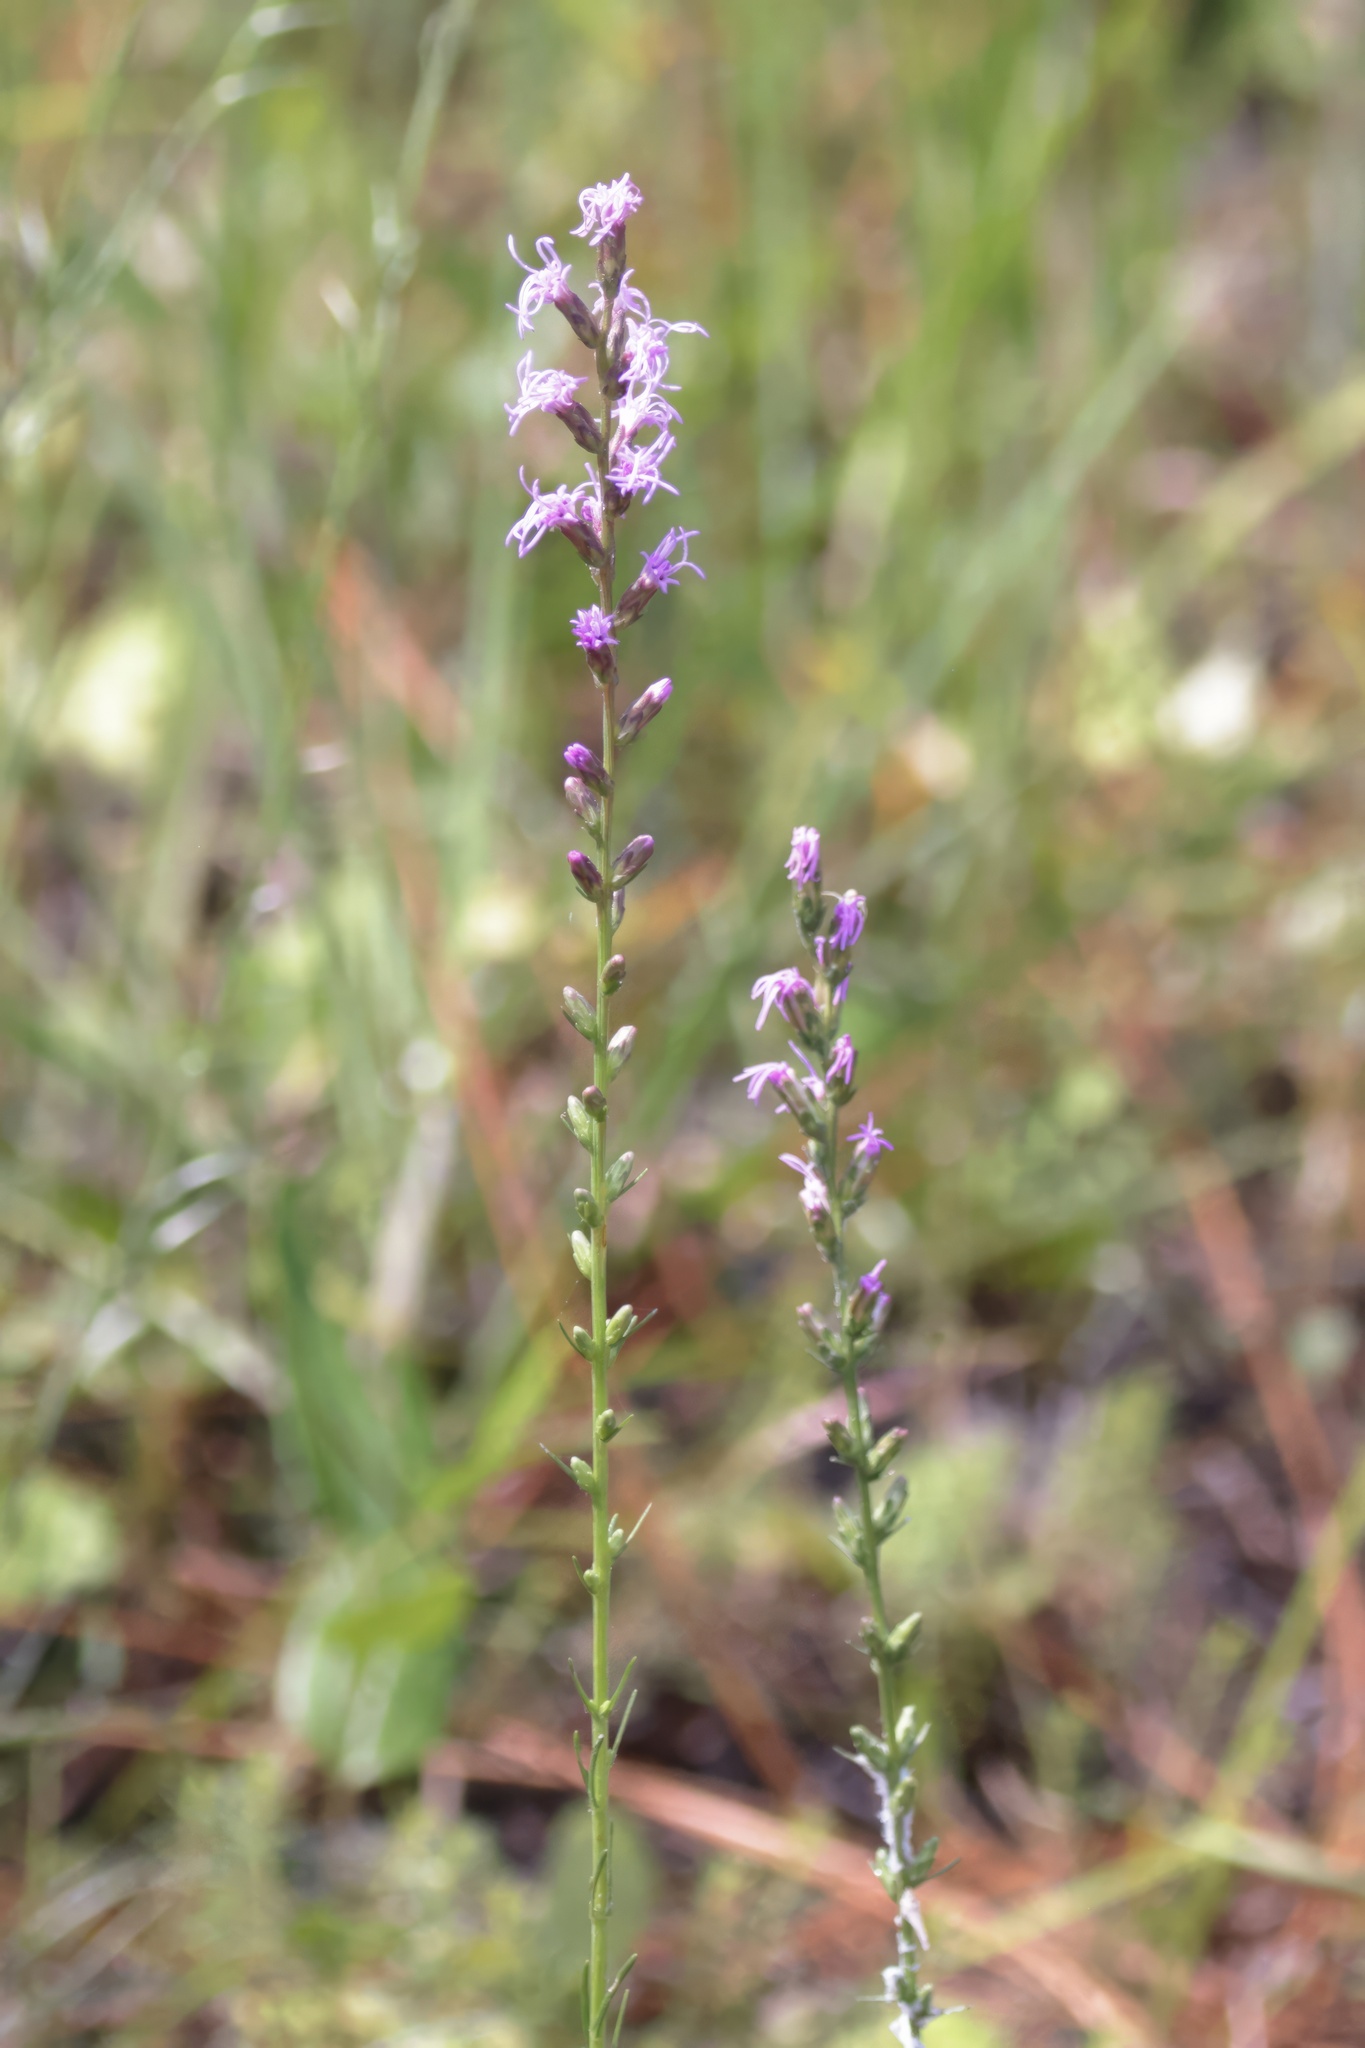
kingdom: Plantae
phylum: Tracheophyta
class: Magnoliopsida
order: Asterales
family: Asteraceae
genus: Liatris
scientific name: Liatris gracilis
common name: Slender gayfeather
